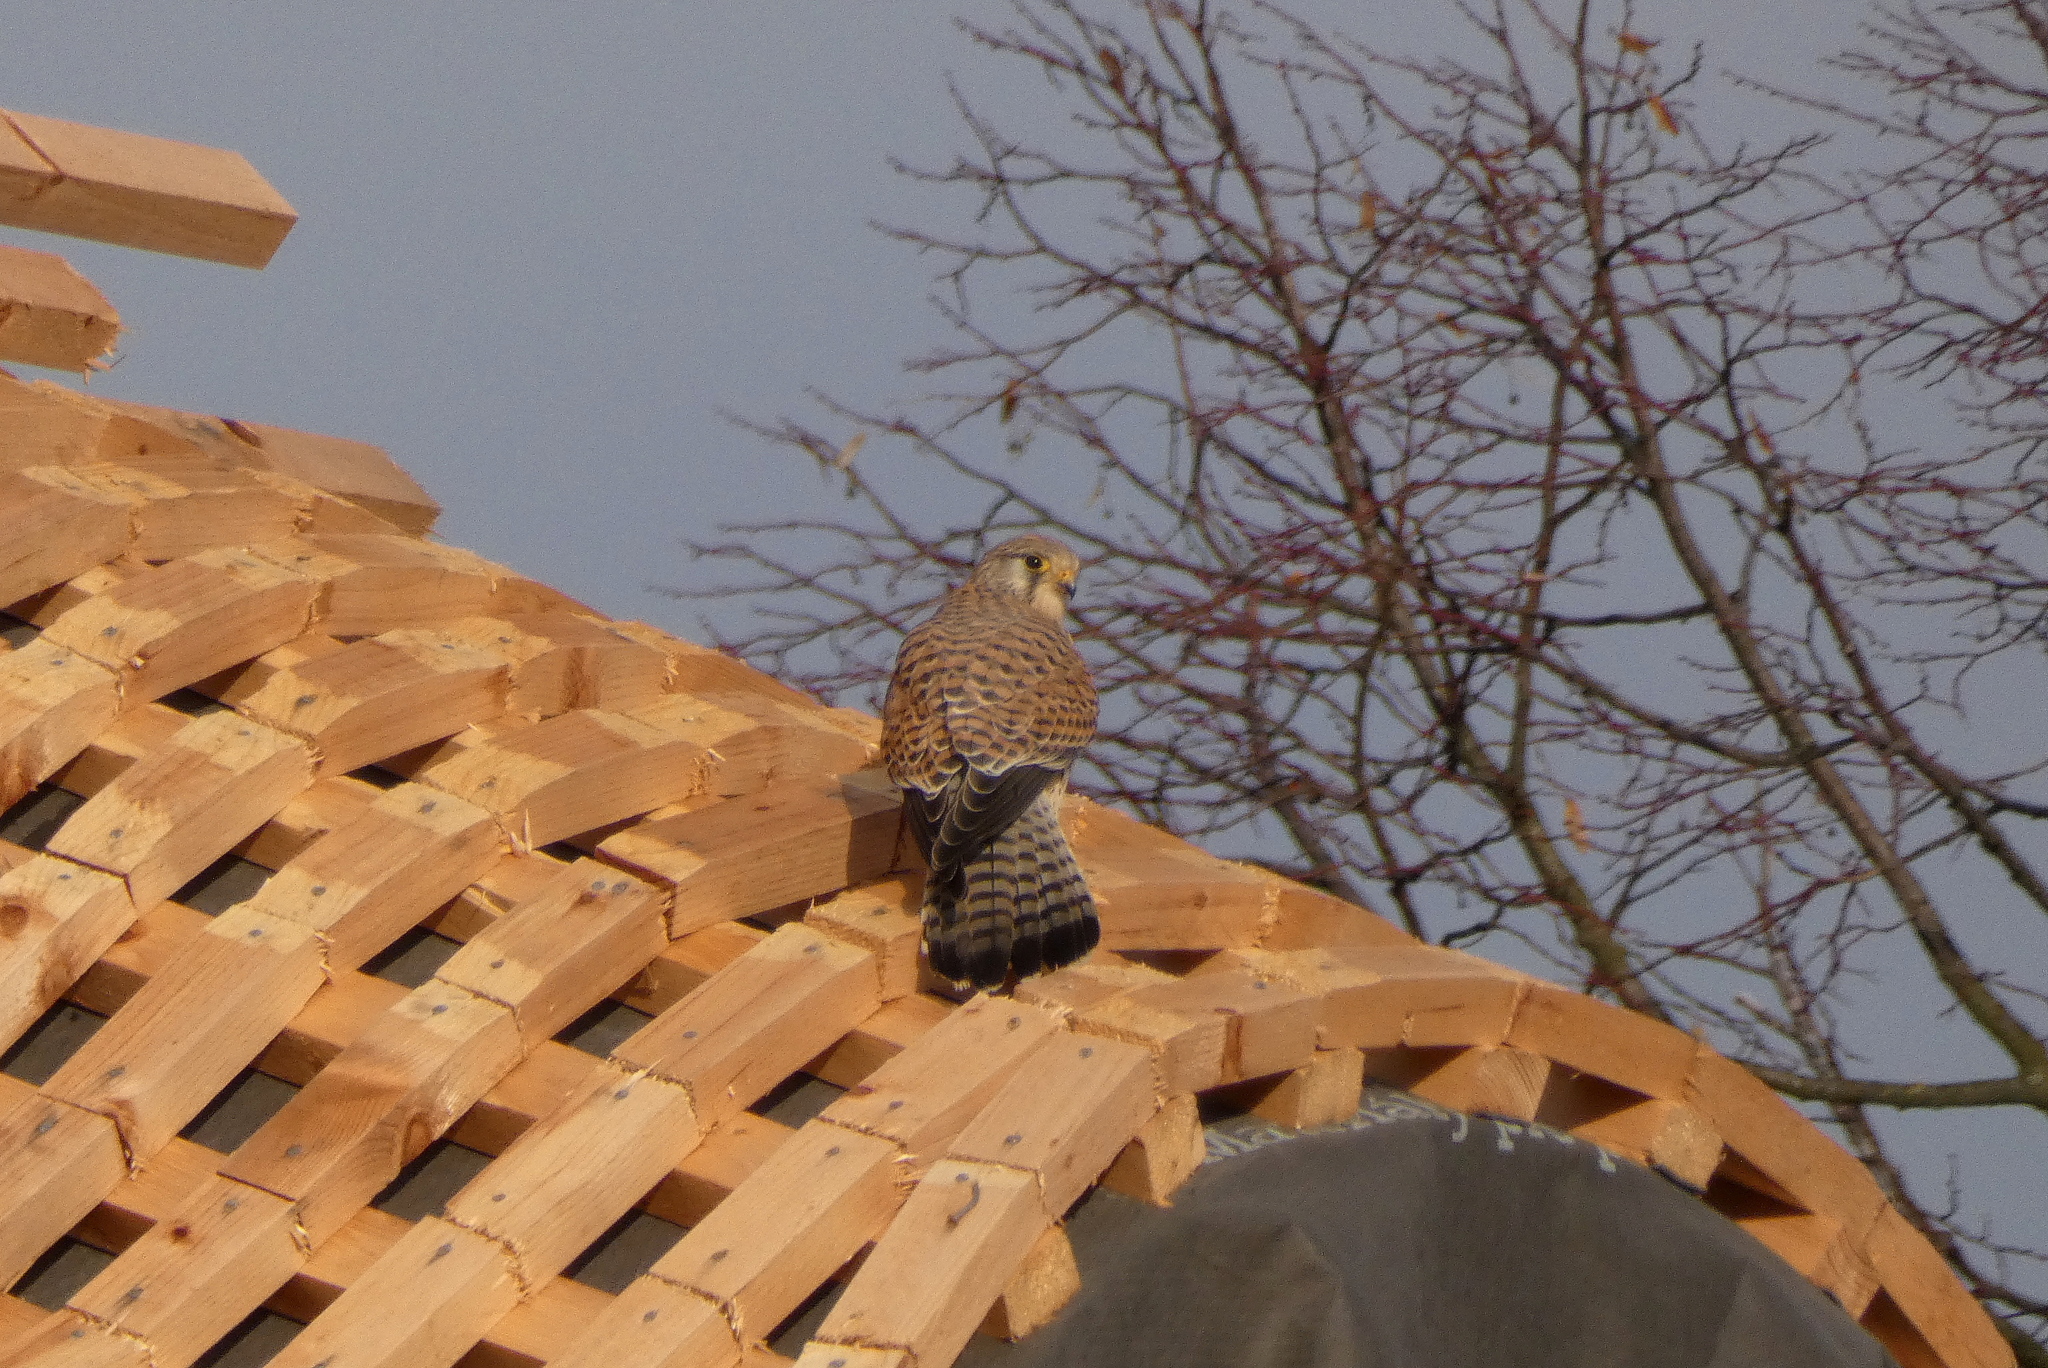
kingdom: Animalia
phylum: Chordata
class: Aves
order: Falconiformes
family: Falconidae
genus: Falco
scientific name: Falco tinnunculus
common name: Common kestrel
